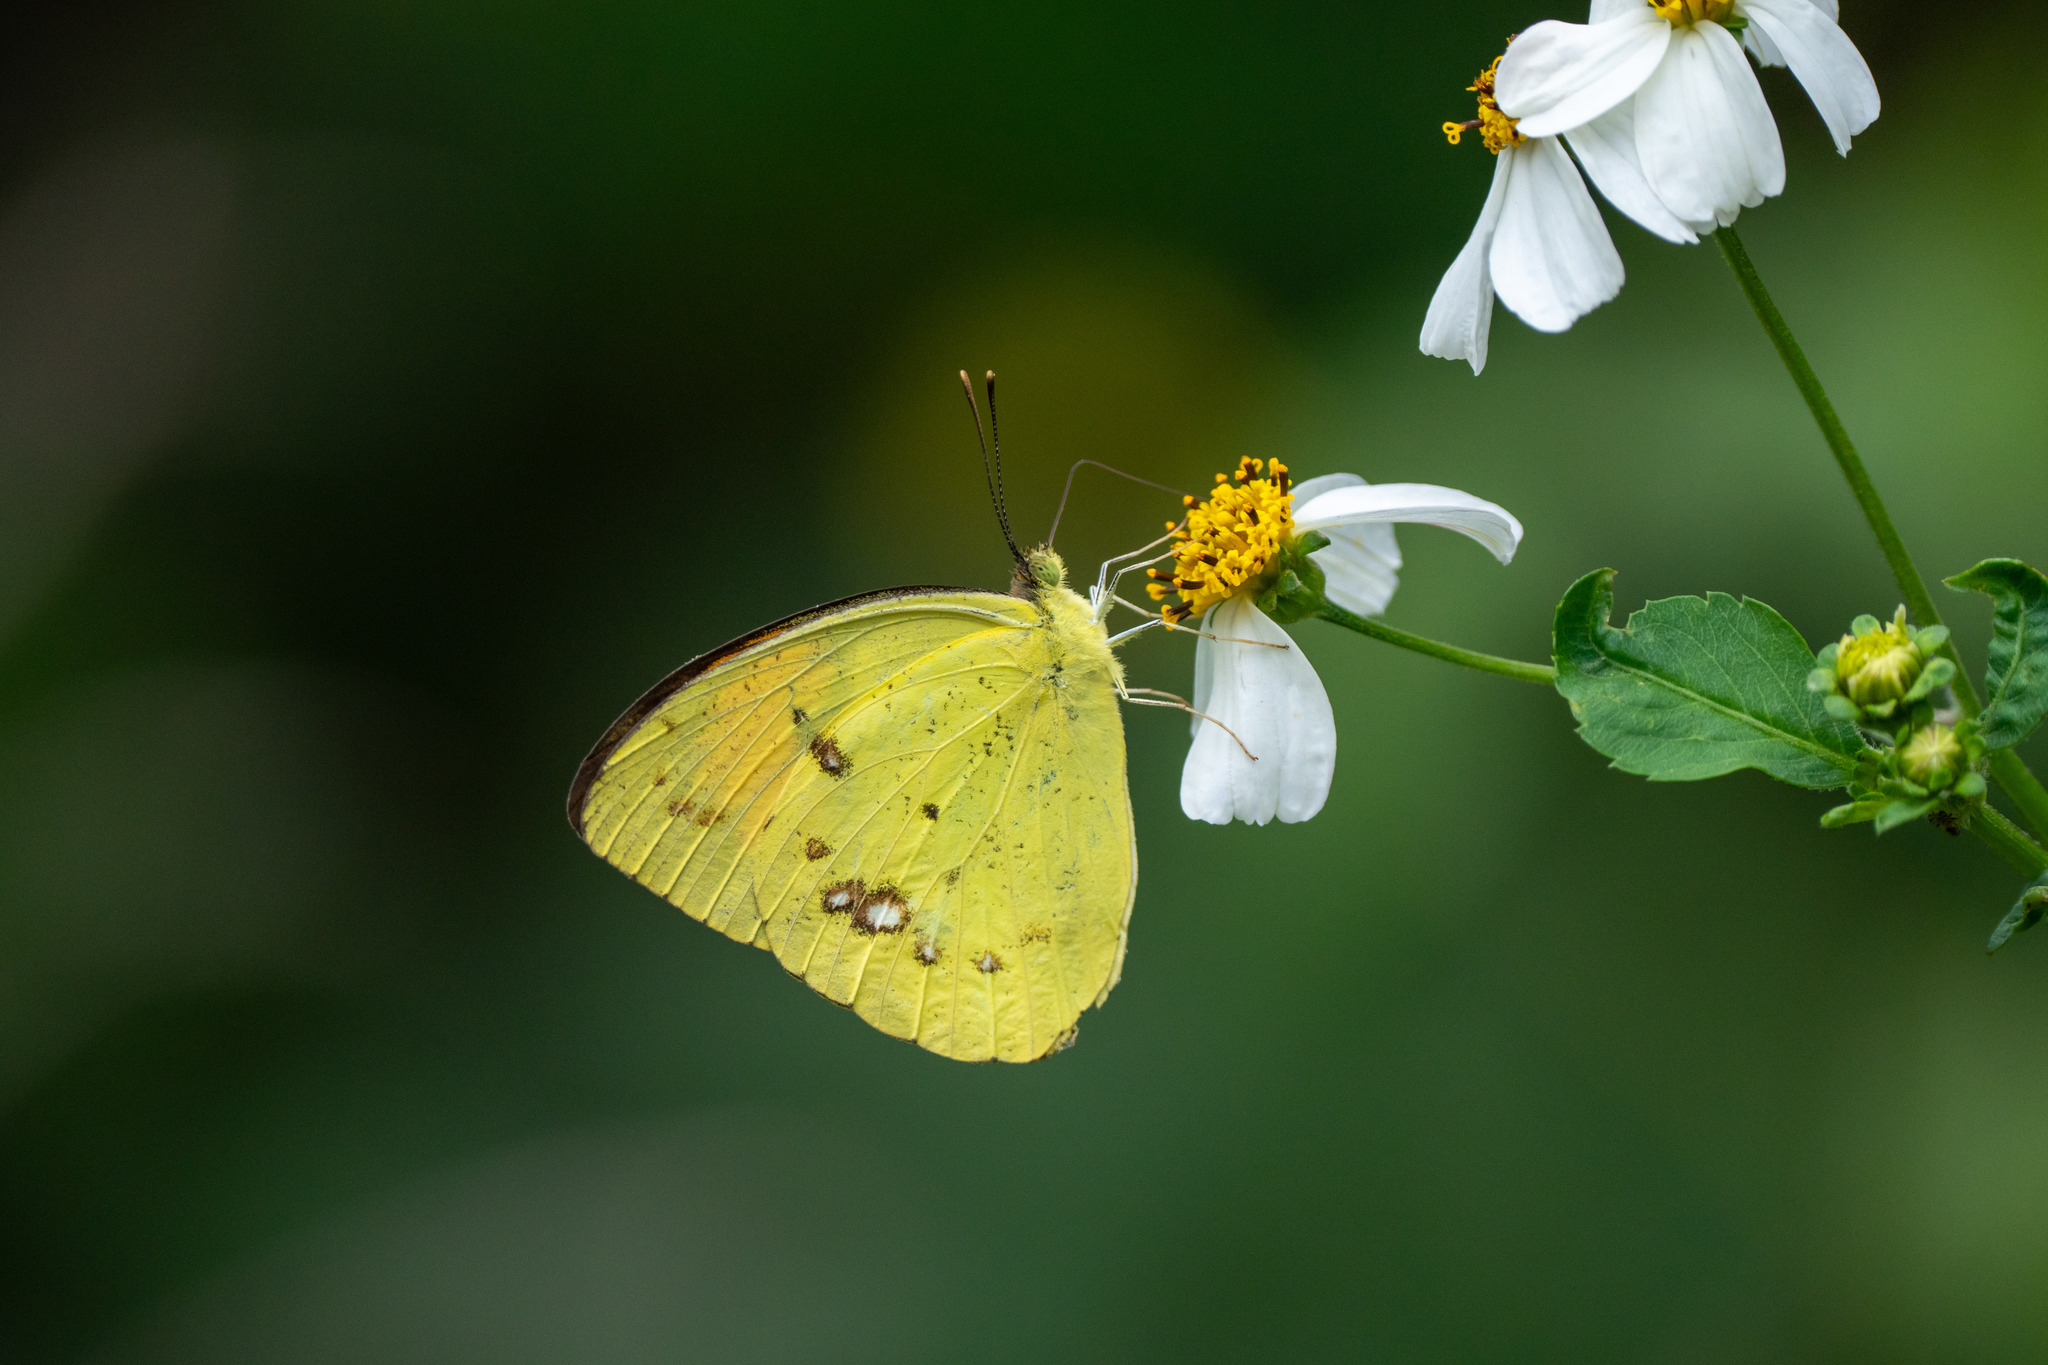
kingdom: Animalia
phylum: Arthropoda
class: Insecta
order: Lepidoptera
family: Pieridae
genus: Ixias
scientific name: Ixias pyrene
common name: Yellow orange tip
